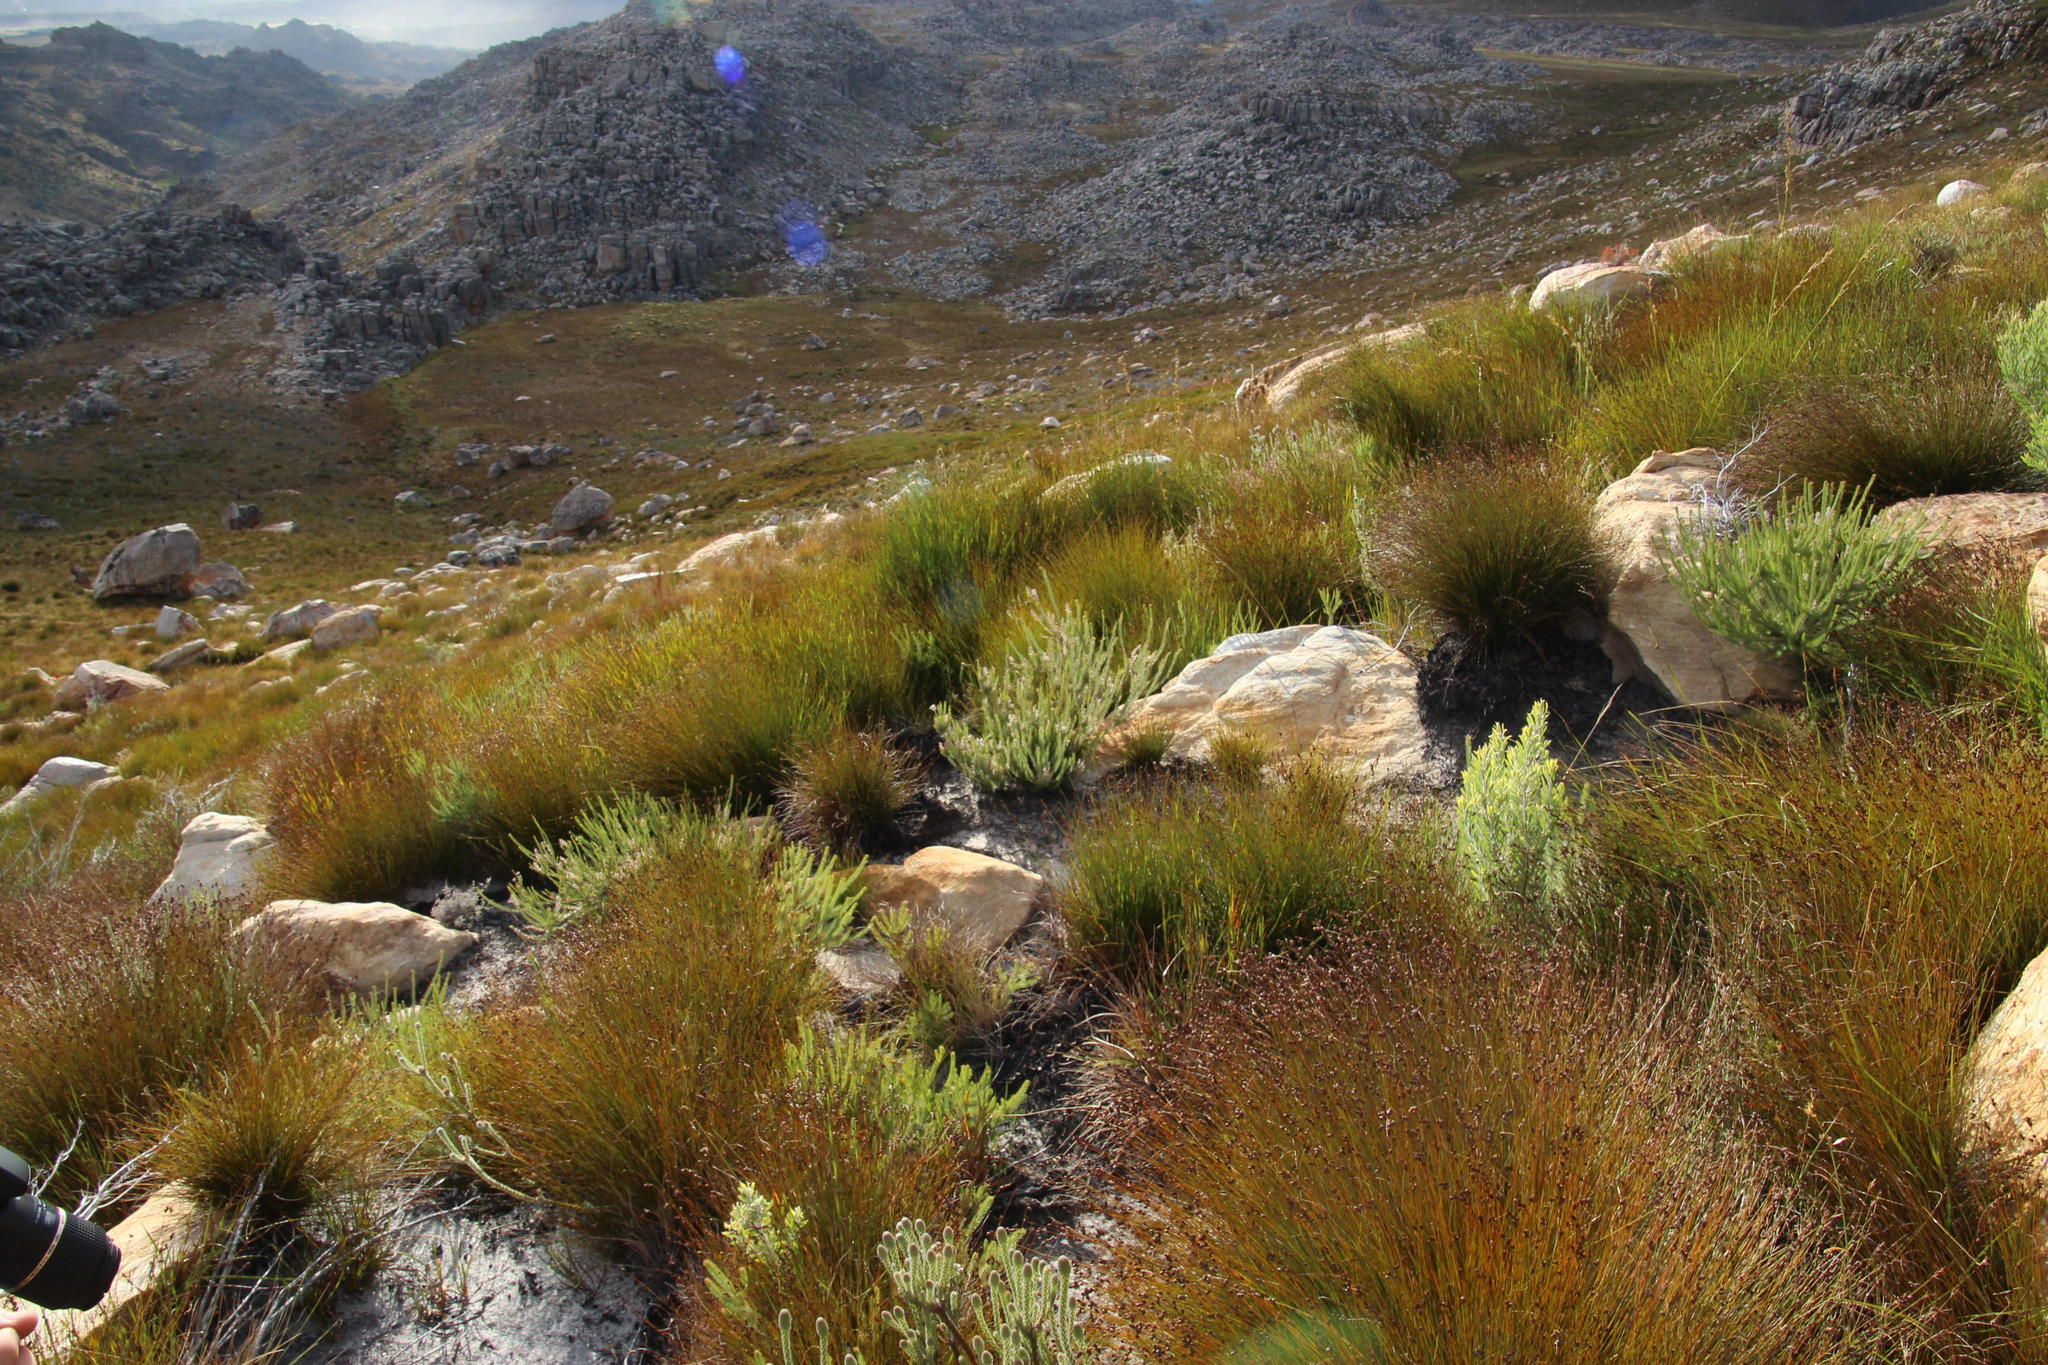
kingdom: Plantae
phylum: Tracheophyta
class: Magnoliopsida
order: Proteales
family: Proteaceae
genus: Spatalla
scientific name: Spatalla incurva
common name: Swan-head spoon
